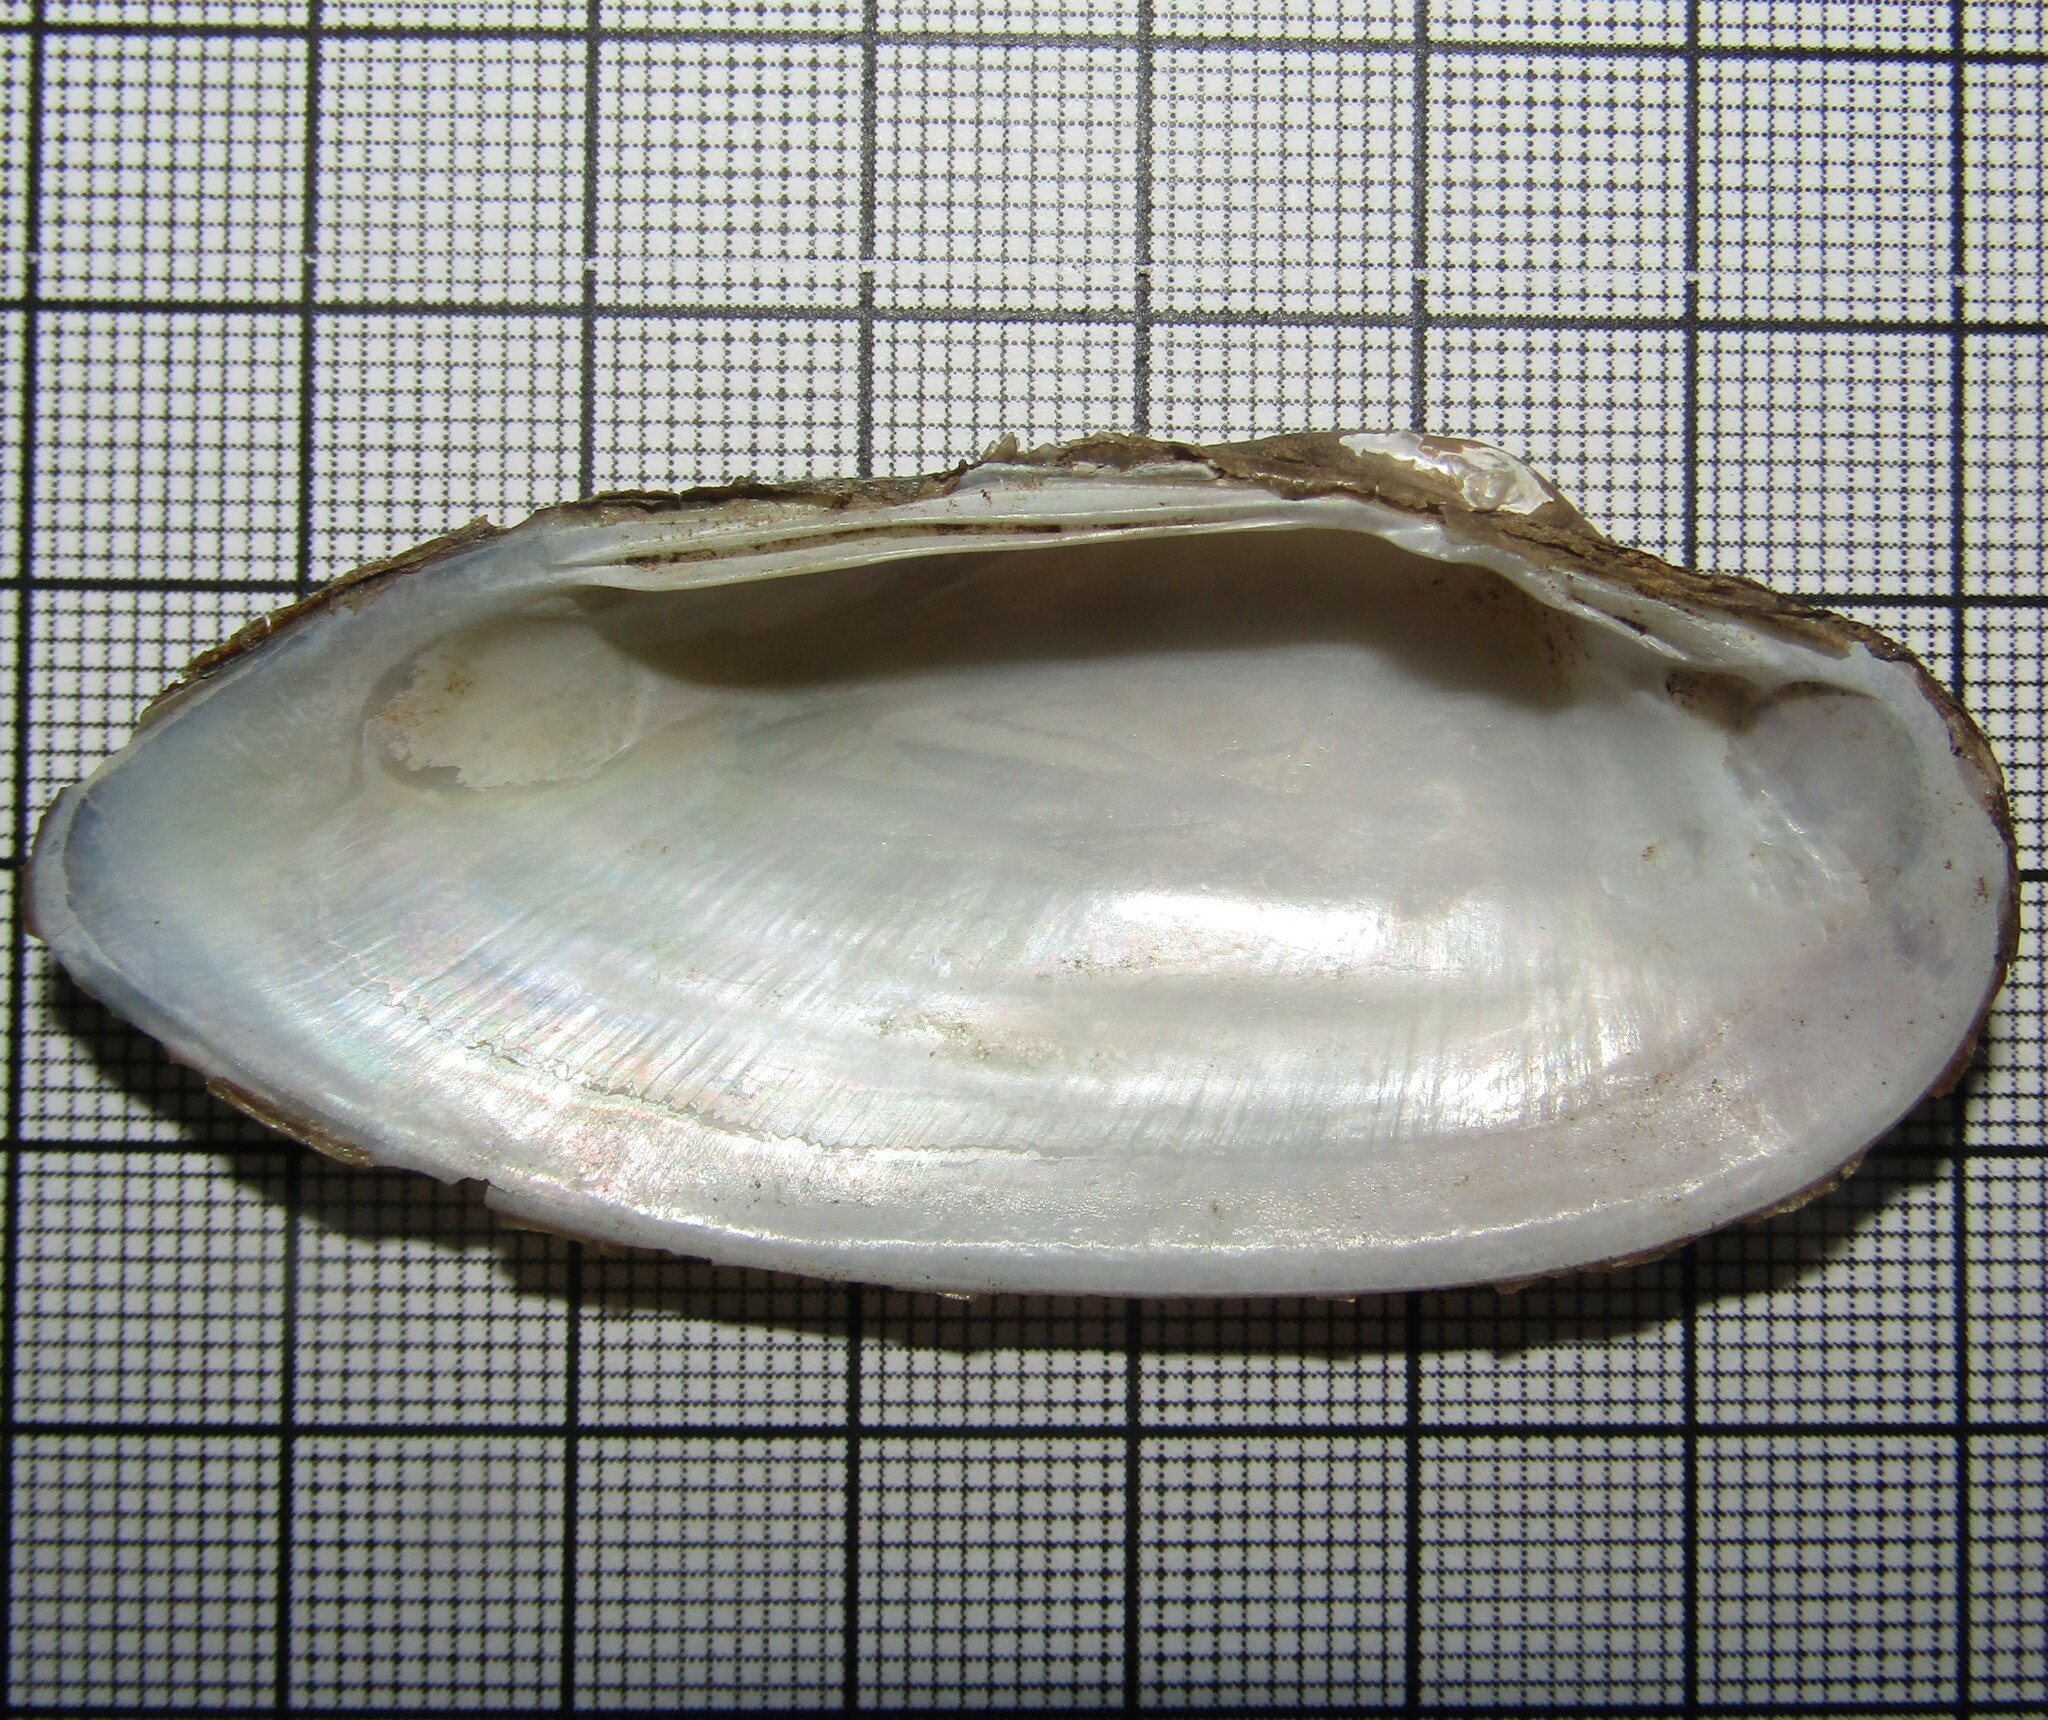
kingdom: Animalia
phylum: Mollusca
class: Bivalvia
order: Unionida
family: Unionidae
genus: Unio
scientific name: Unio pictorum
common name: Painter's mussel
